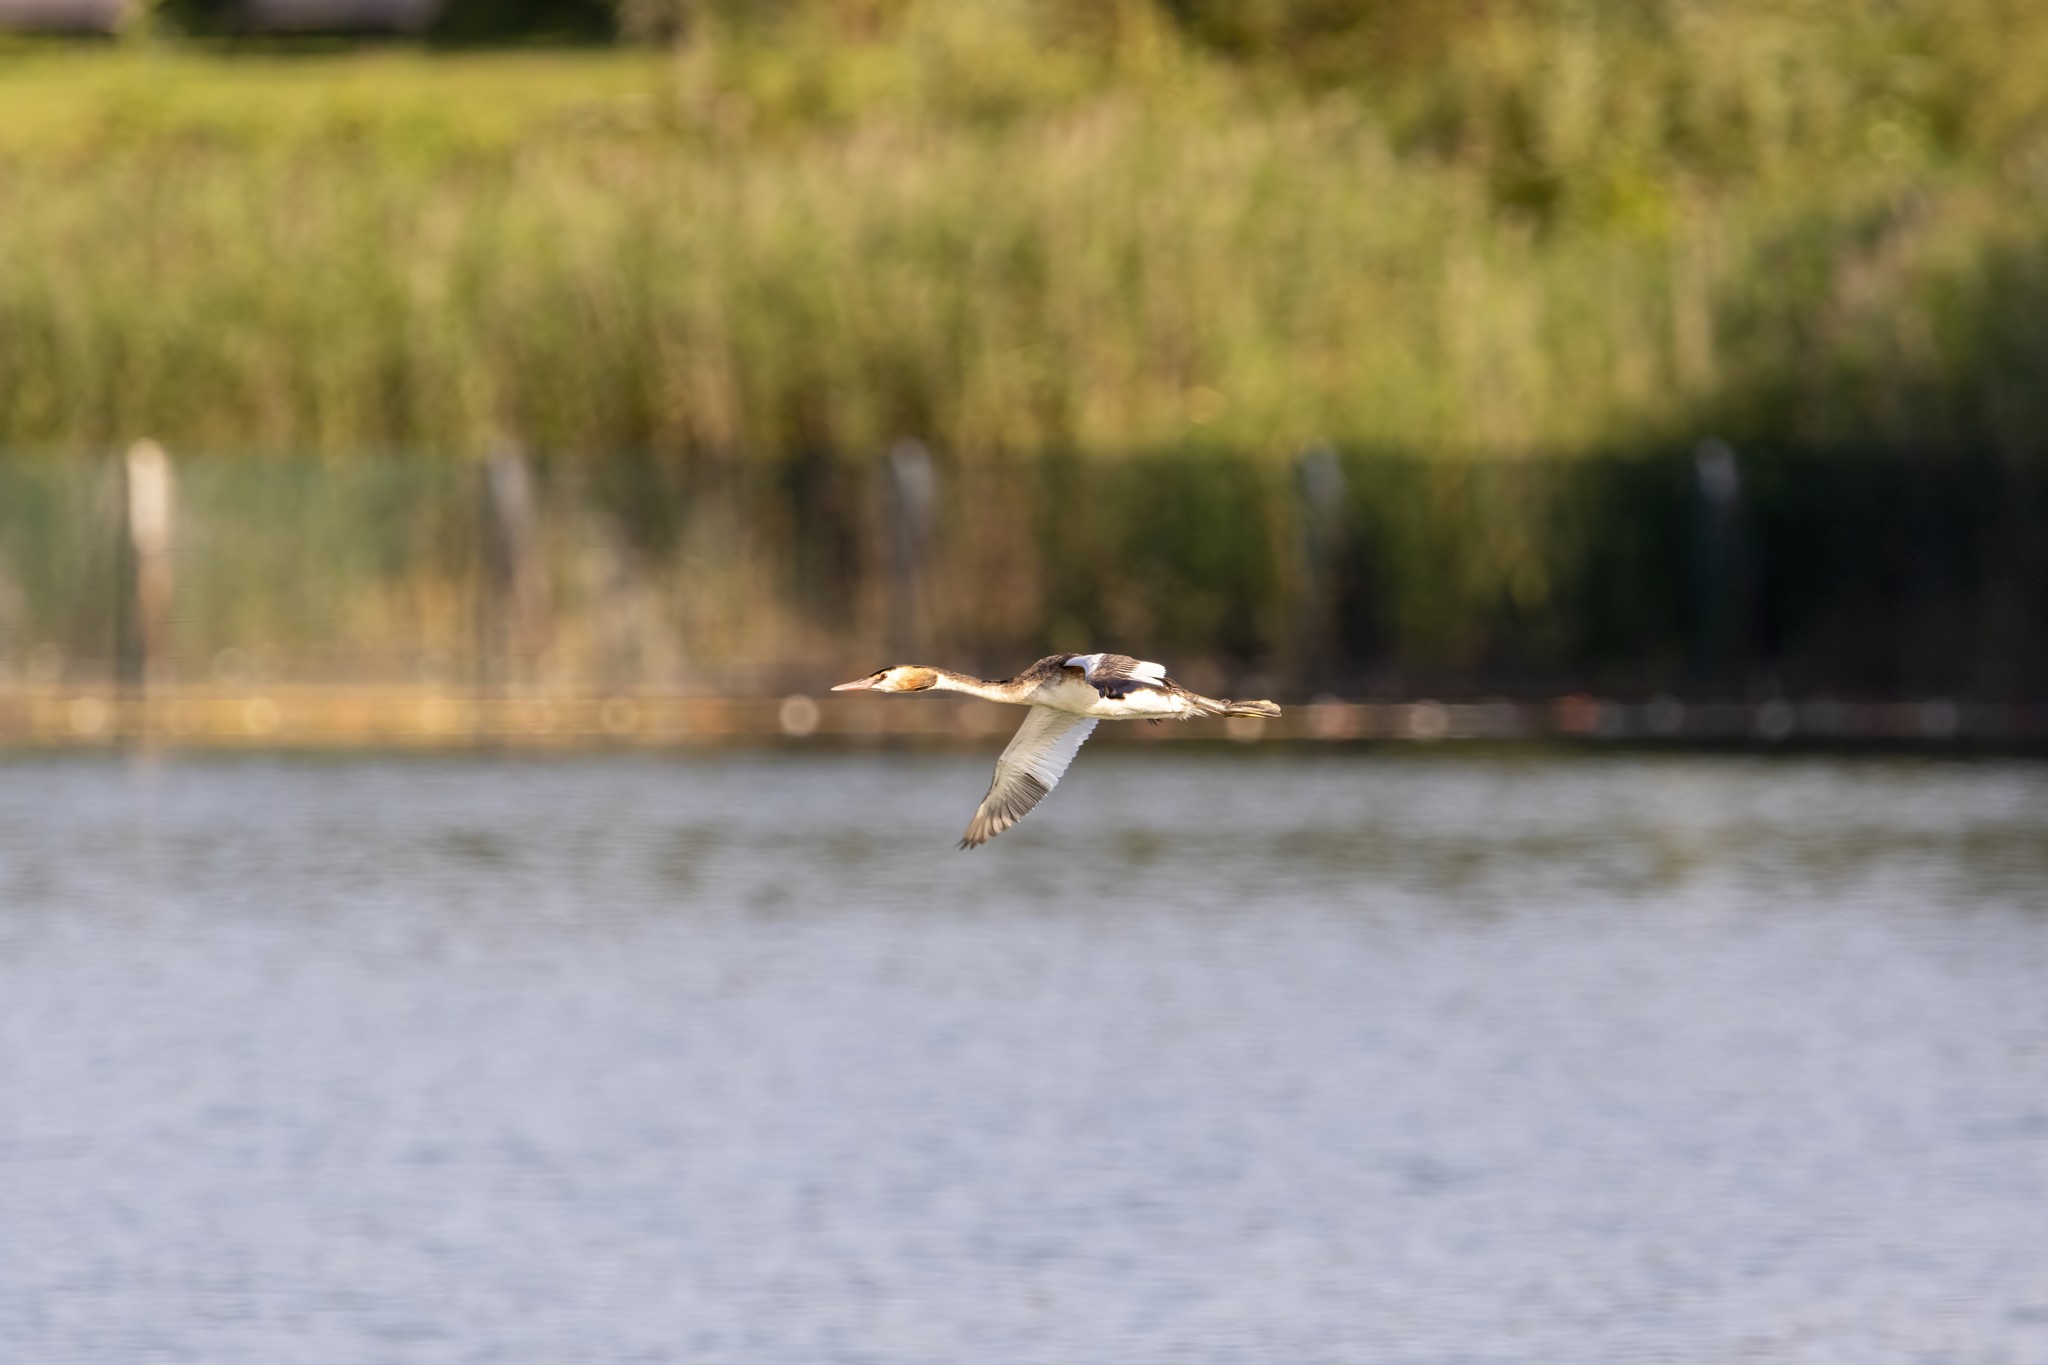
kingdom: Animalia
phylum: Chordata
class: Aves
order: Podicipediformes
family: Podicipedidae
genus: Podiceps
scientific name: Podiceps cristatus
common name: Great crested grebe
